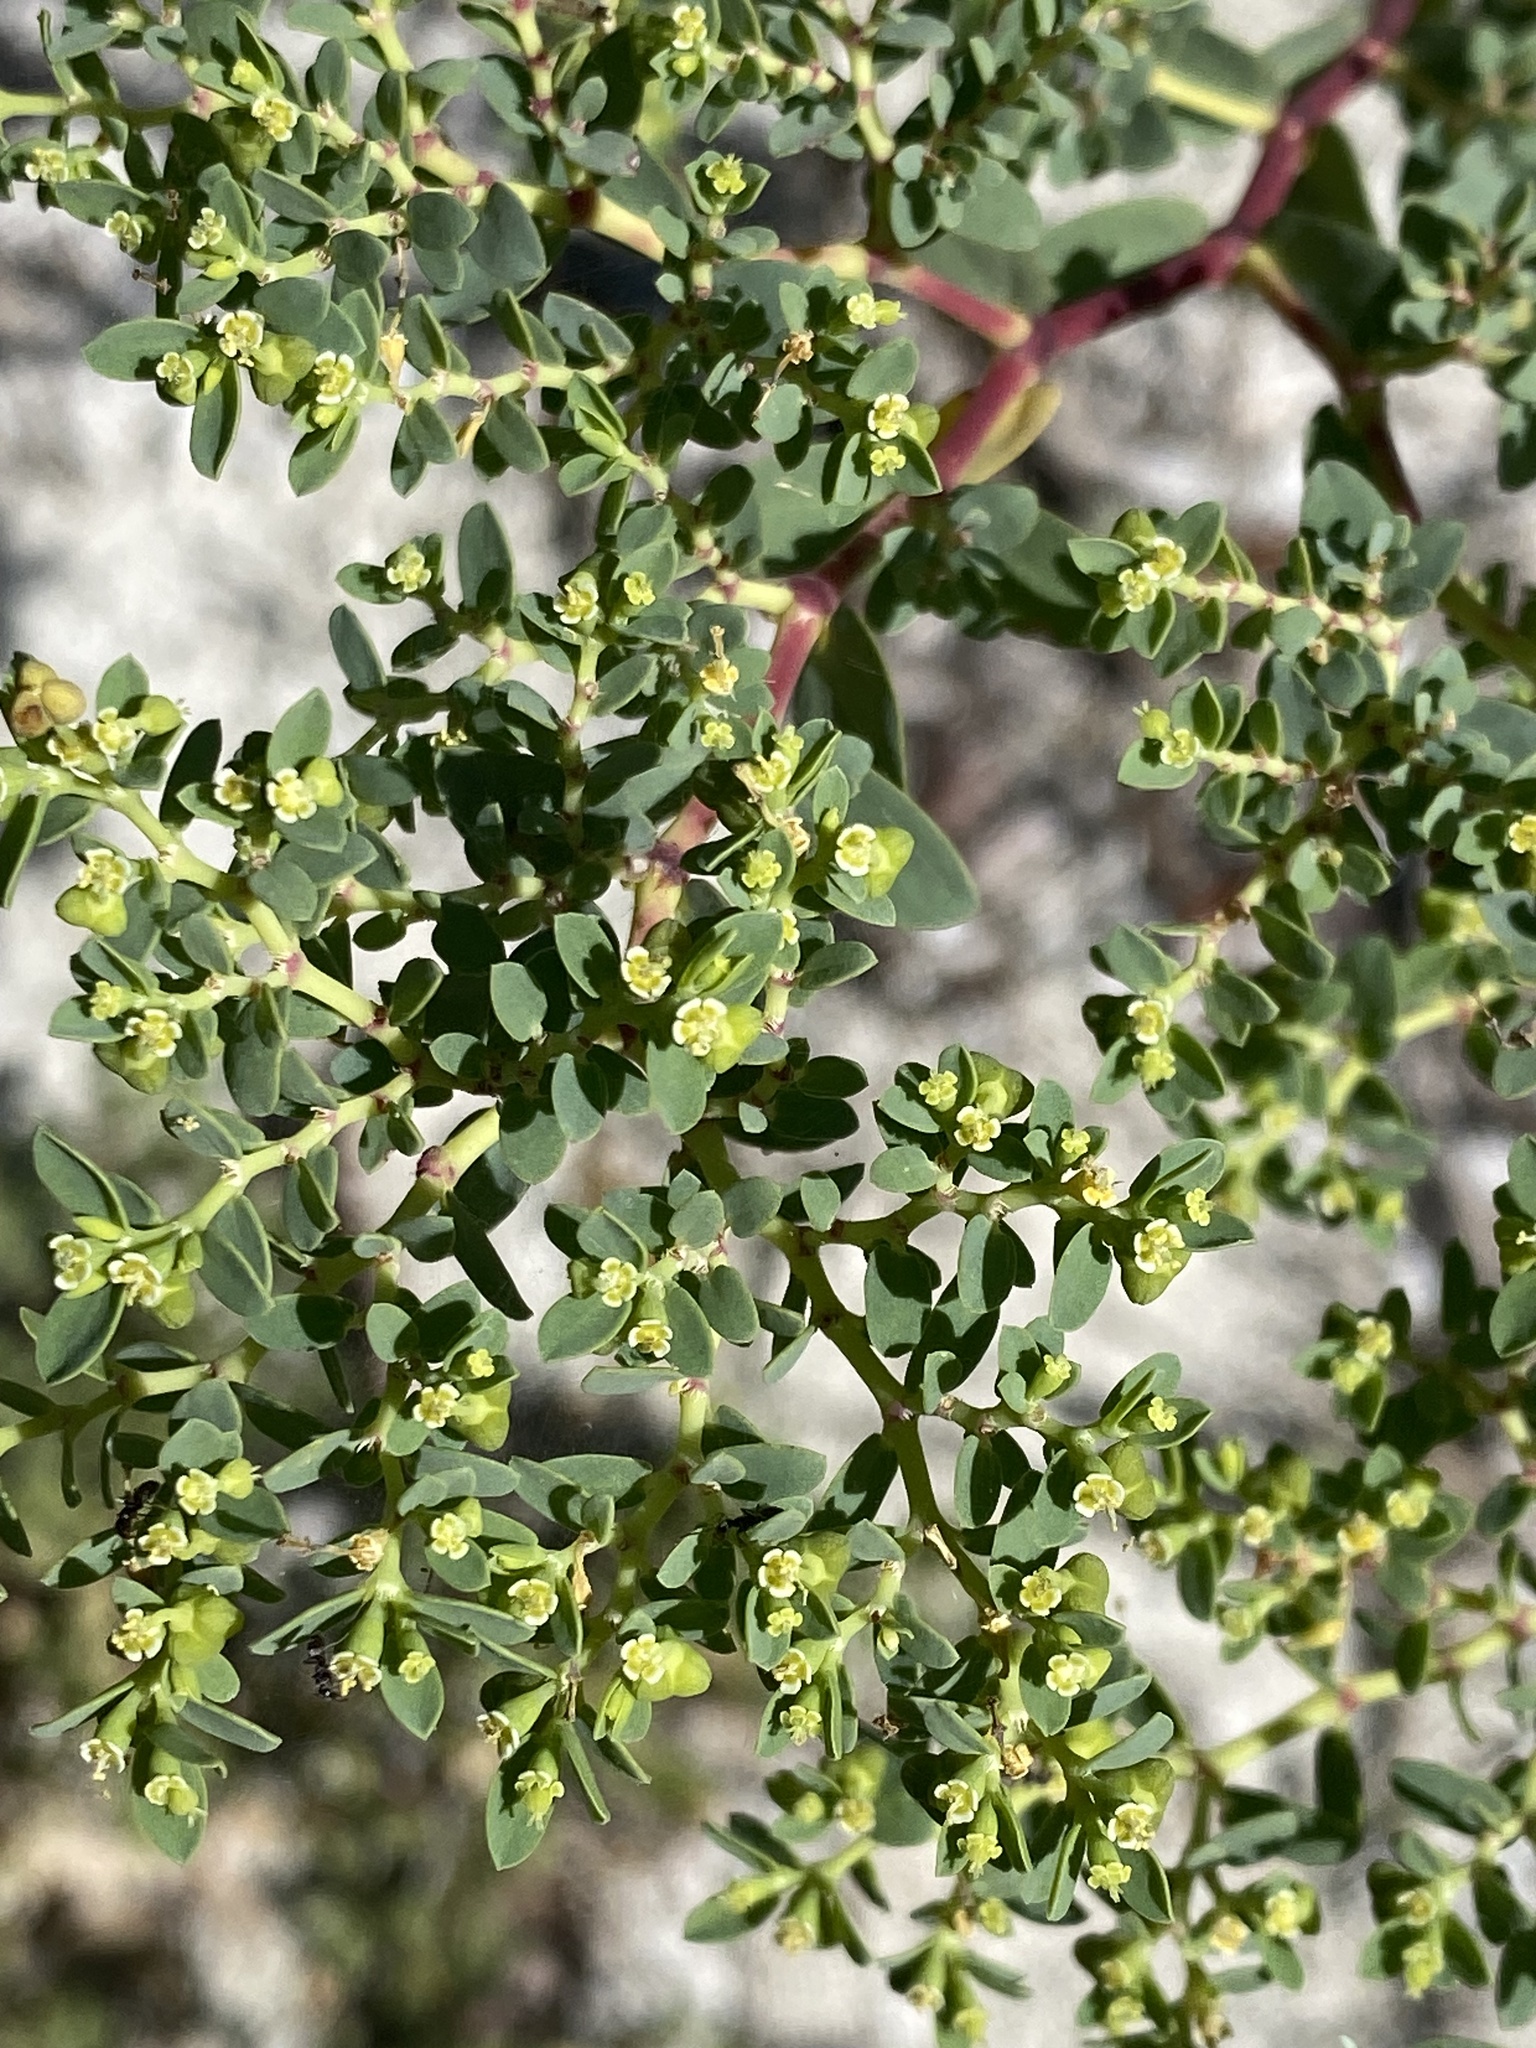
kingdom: Plantae
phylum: Tracheophyta
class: Magnoliopsida
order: Malpighiales
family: Euphorbiaceae
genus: Euphorbia
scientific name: Euphorbia mesembryanthemifolia
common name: Coastal beach sandmat
